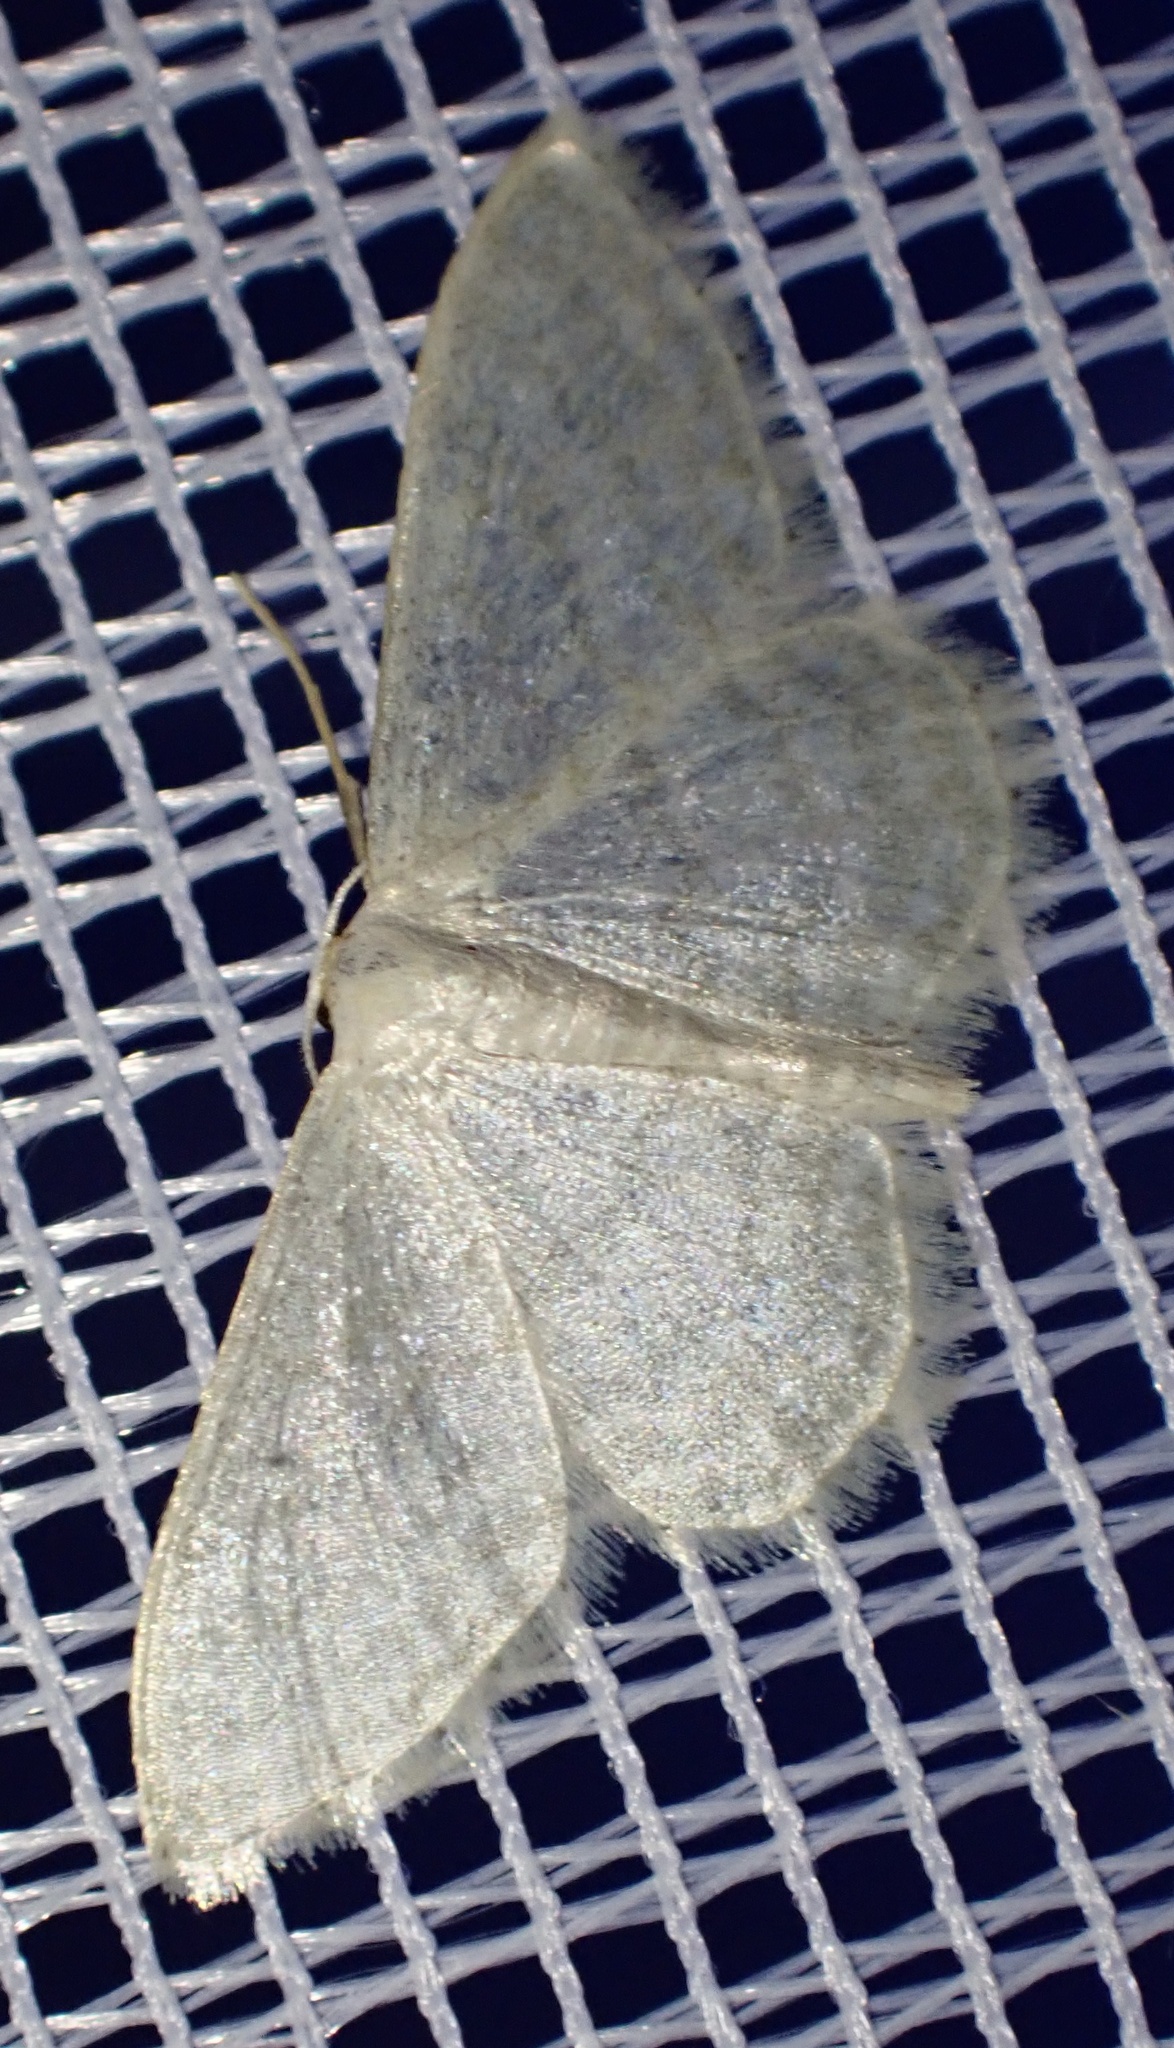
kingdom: Animalia
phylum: Arthropoda
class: Insecta
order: Lepidoptera
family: Geometridae
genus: Idaea
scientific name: Idaea subsericeata
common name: Satin wave
